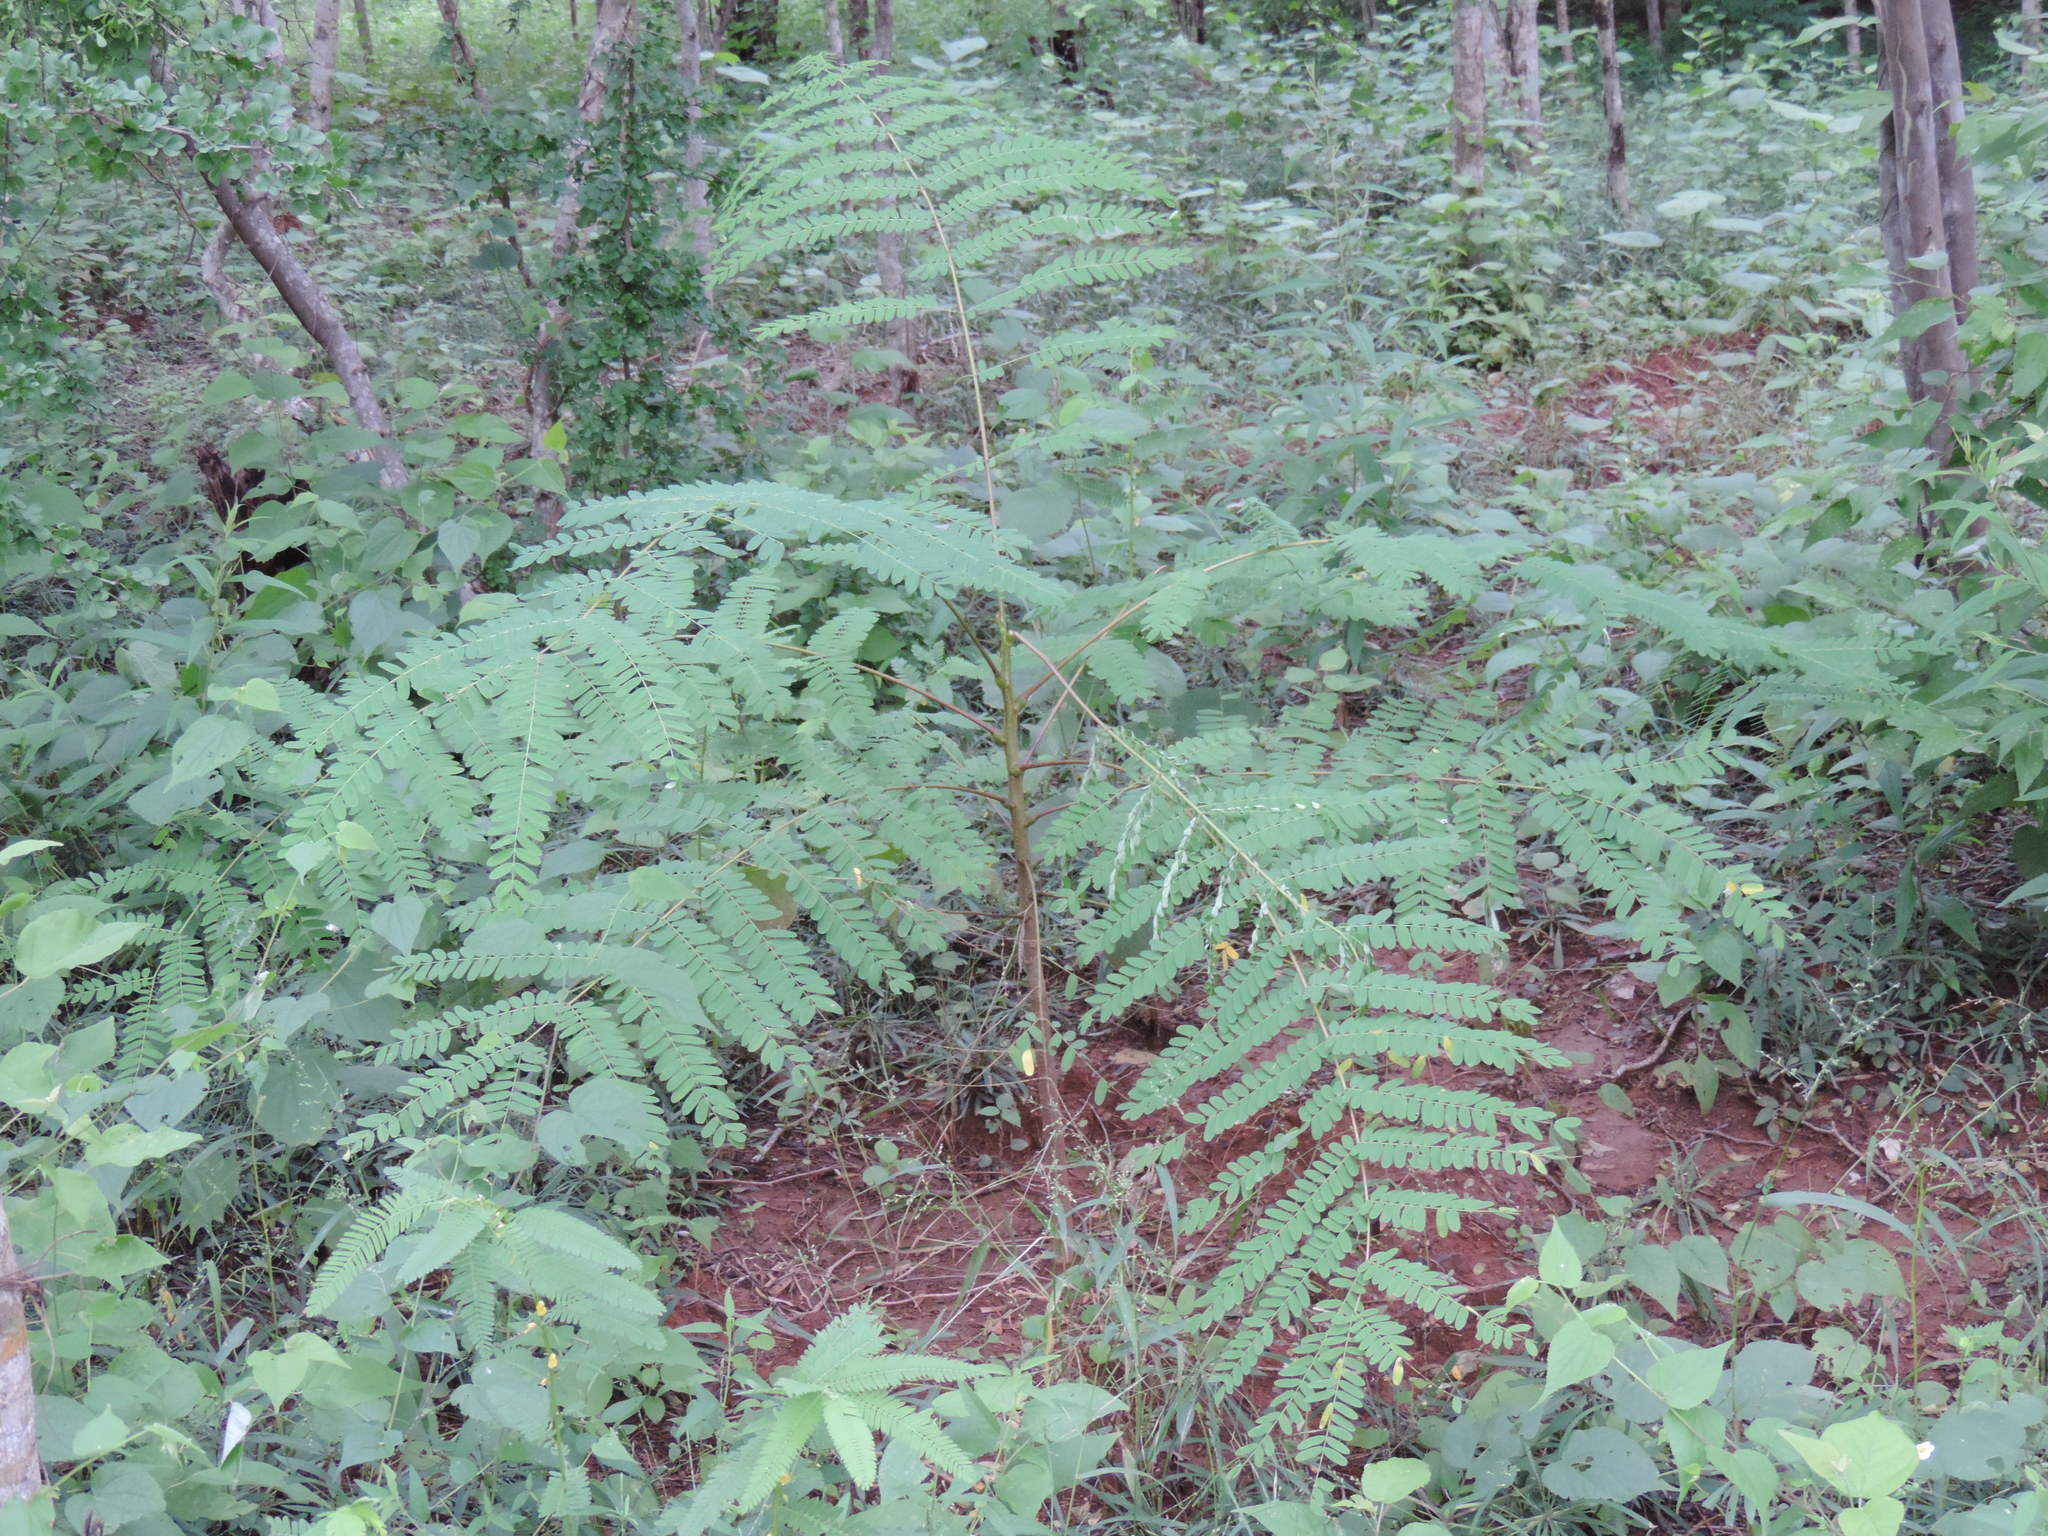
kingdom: Plantae
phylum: Tracheophyta
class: Magnoliopsida
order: Fabales
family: Fabaceae
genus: Albizia
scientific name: Albizia sinaloensis
